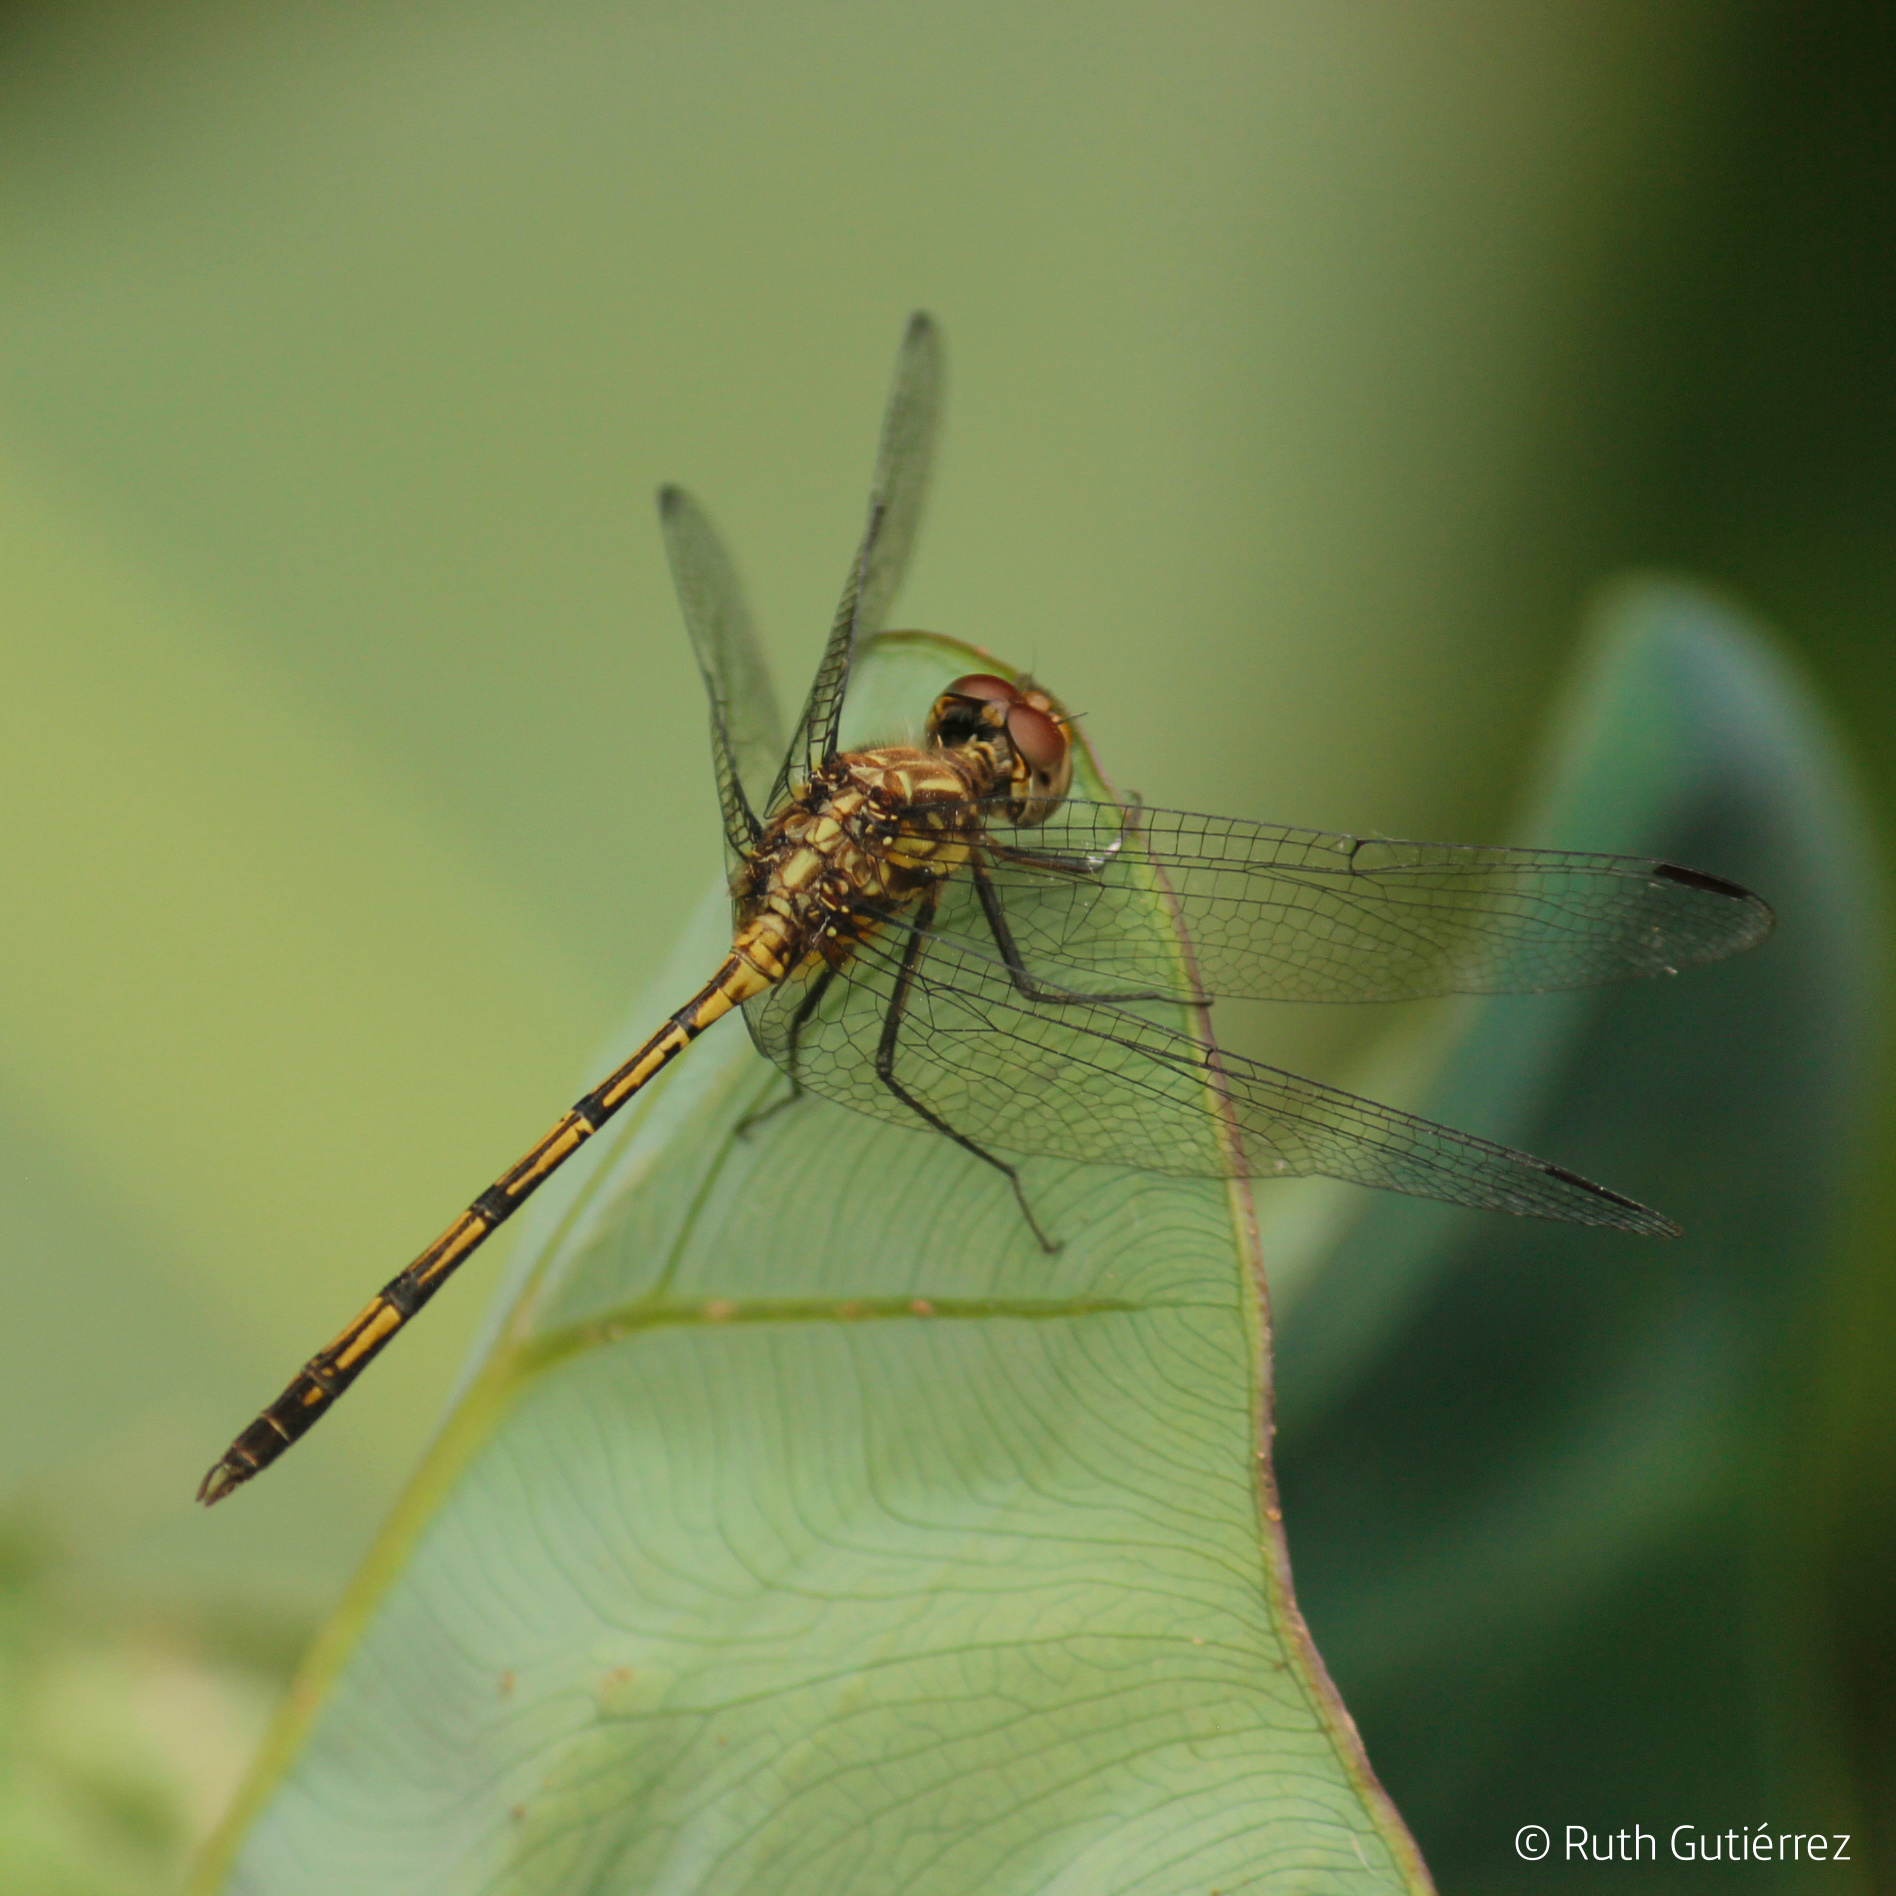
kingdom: Animalia
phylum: Arthropoda
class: Insecta
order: Odonata
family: Libellulidae
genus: Dythemis
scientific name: Dythemis sterilis
